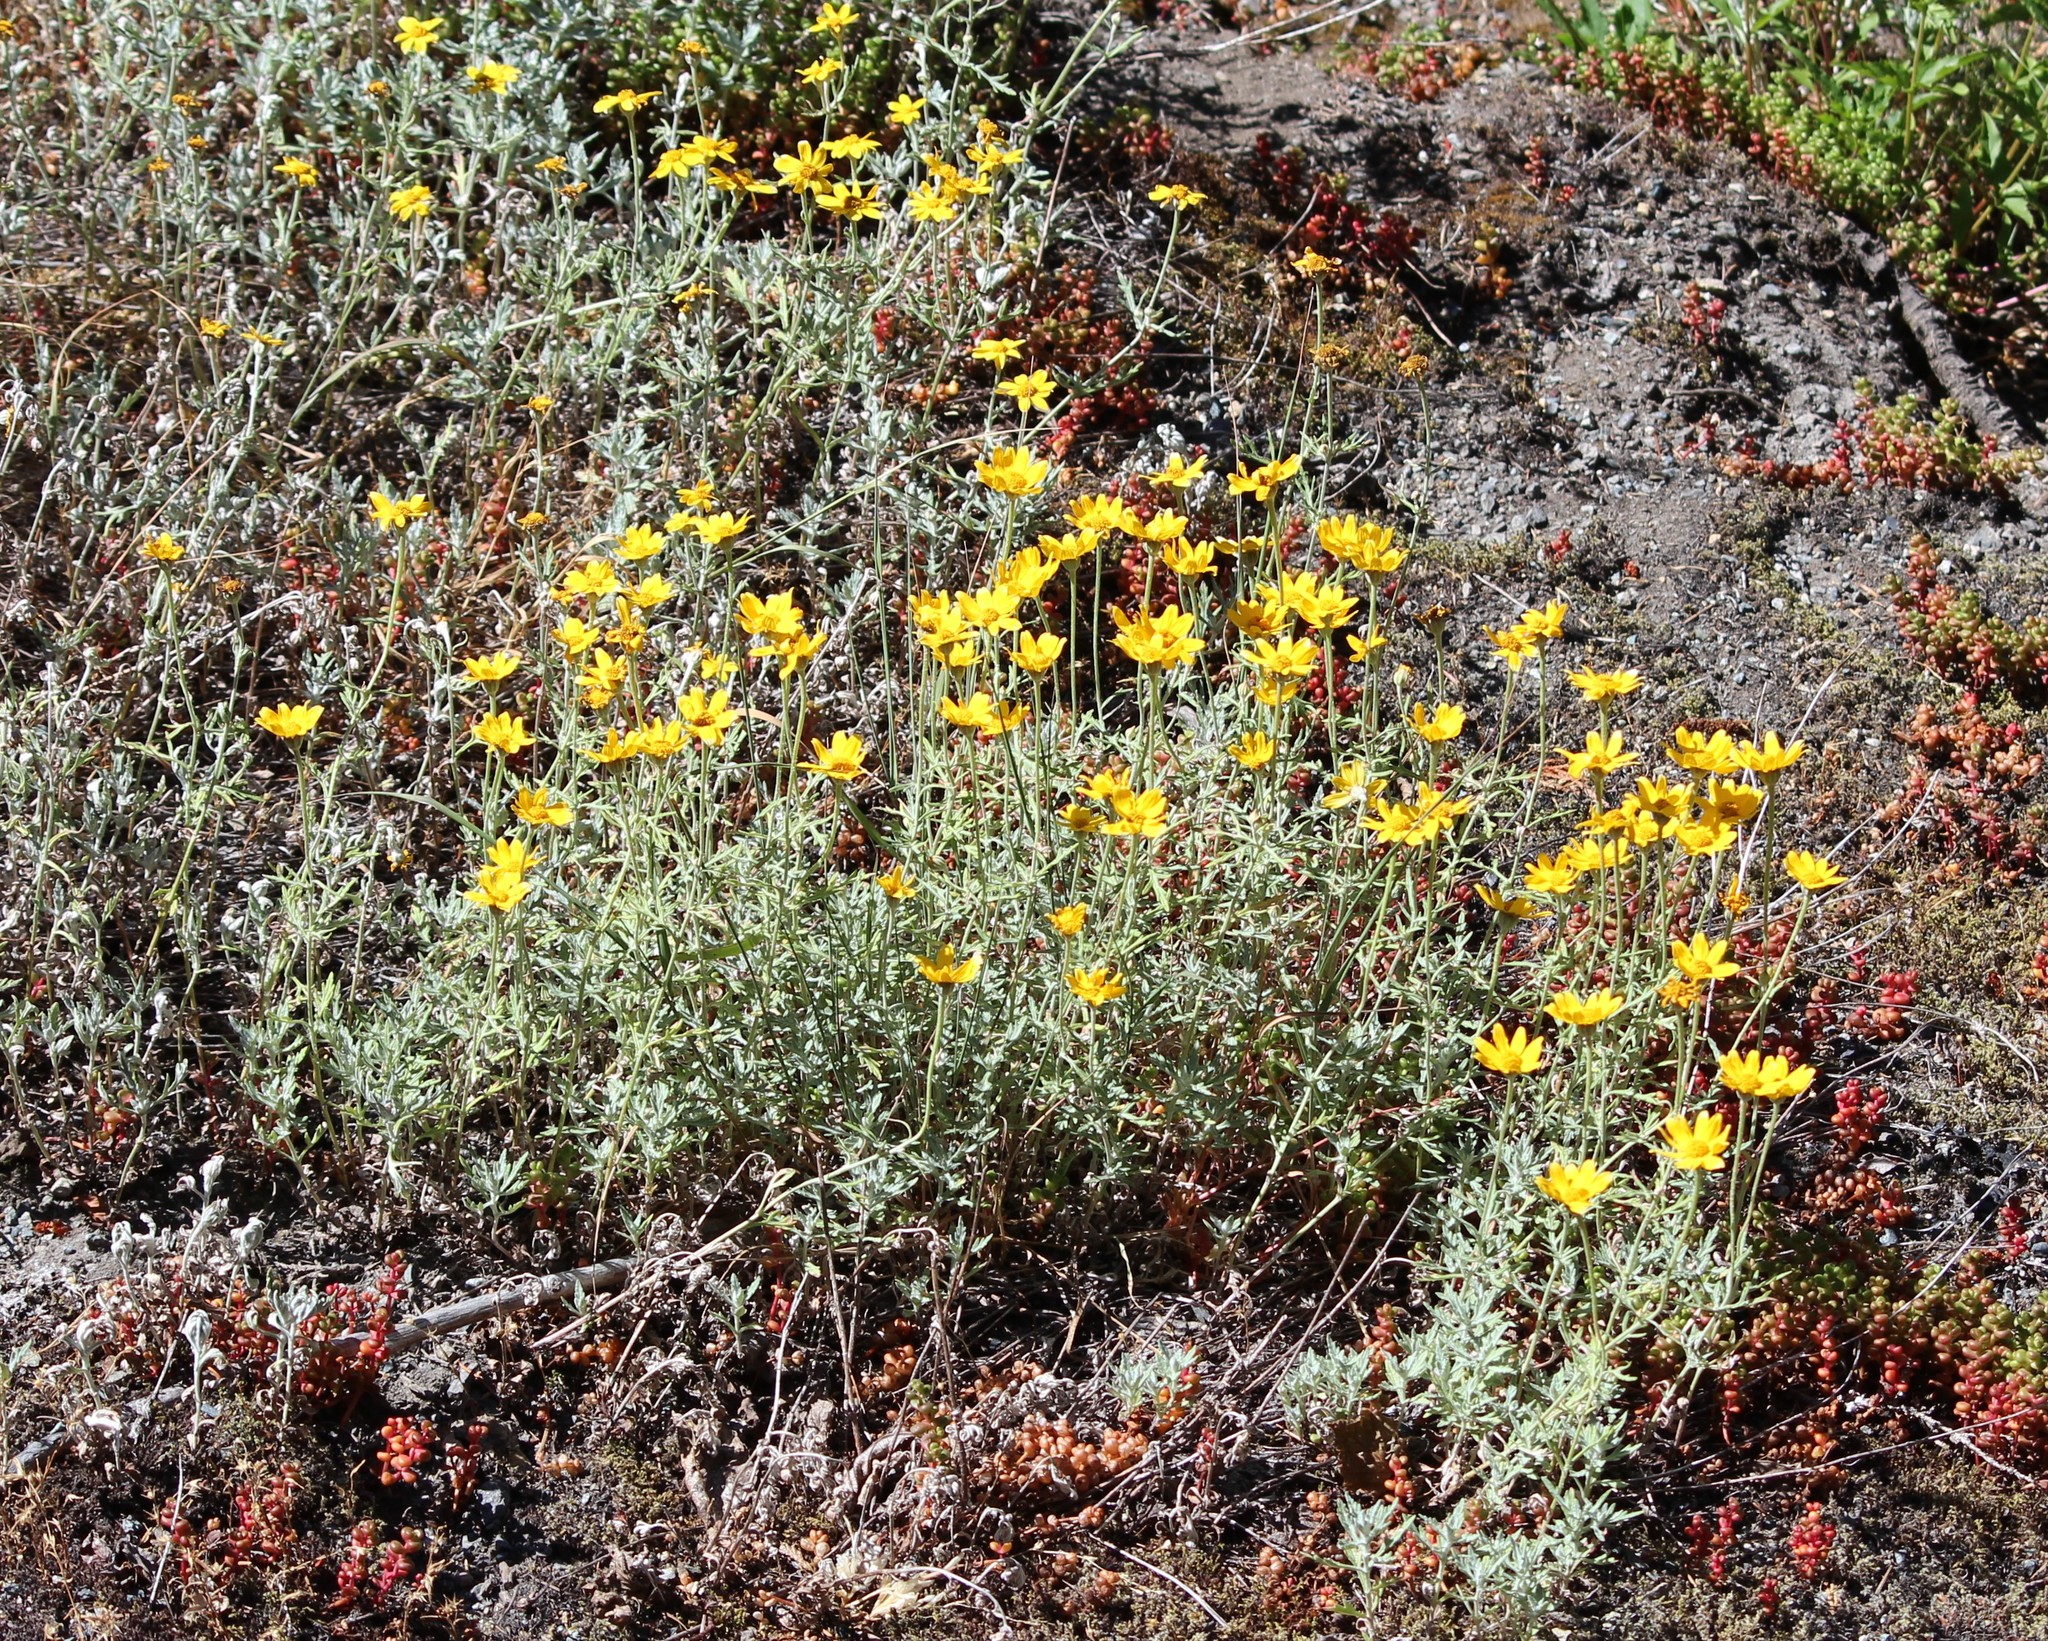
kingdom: Plantae
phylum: Tracheophyta
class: Magnoliopsida
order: Asterales
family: Asteraceae
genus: Eriophyllum
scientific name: Eriophyllum lanatum
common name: Common woolly-sunflower
